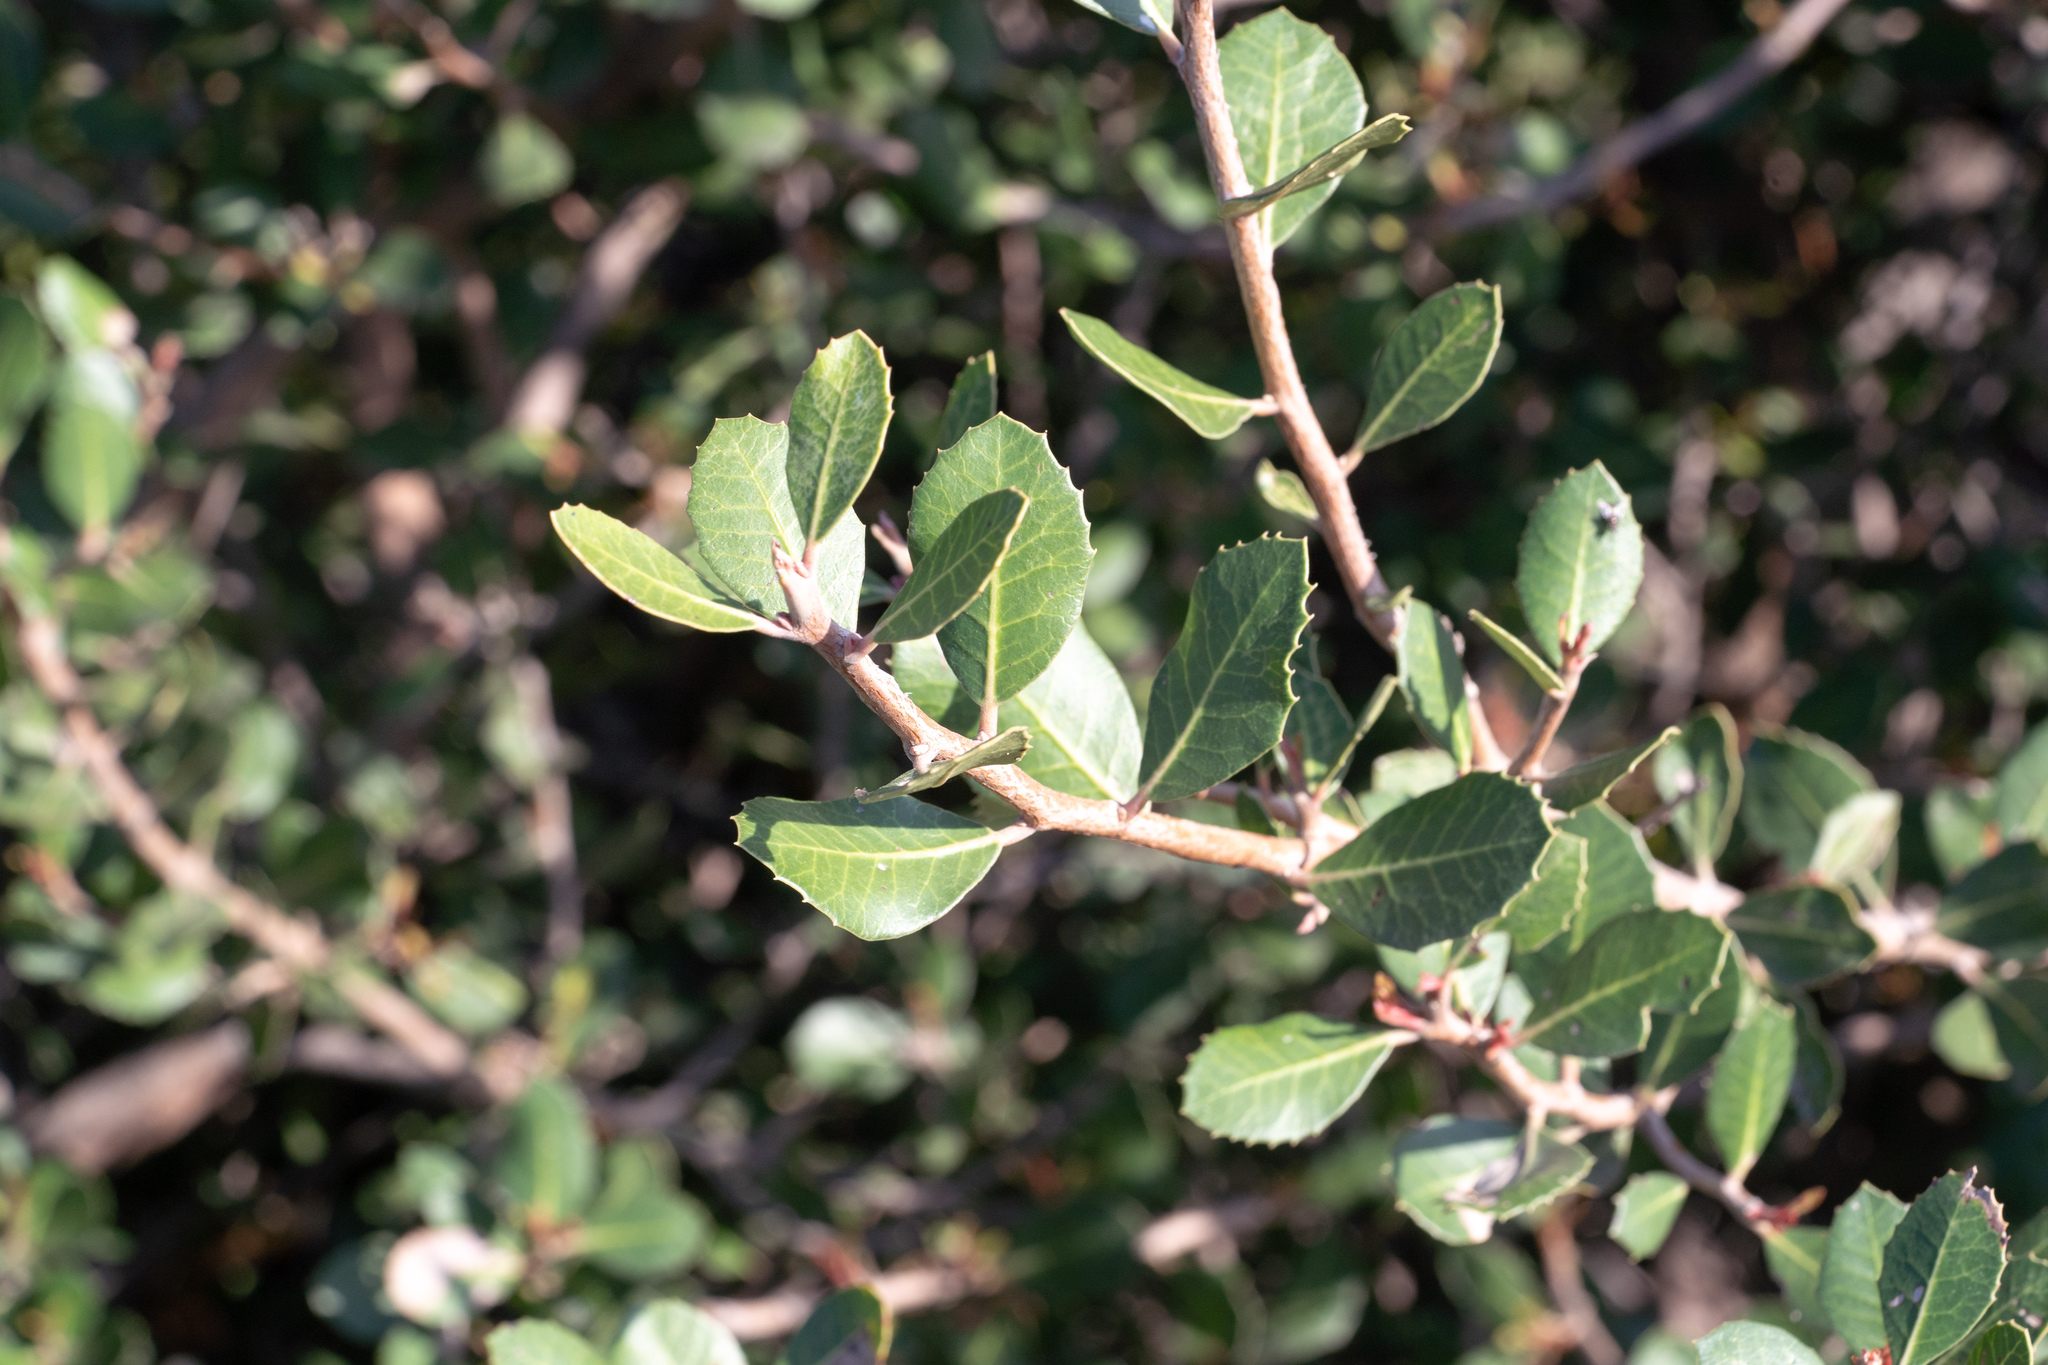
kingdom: Plantae
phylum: Tracheophyta
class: Magnoliopsida
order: Sapindales
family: Anacardiaceae
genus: Rhus
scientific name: Rhus integrifolia
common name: Lemonade sumac
